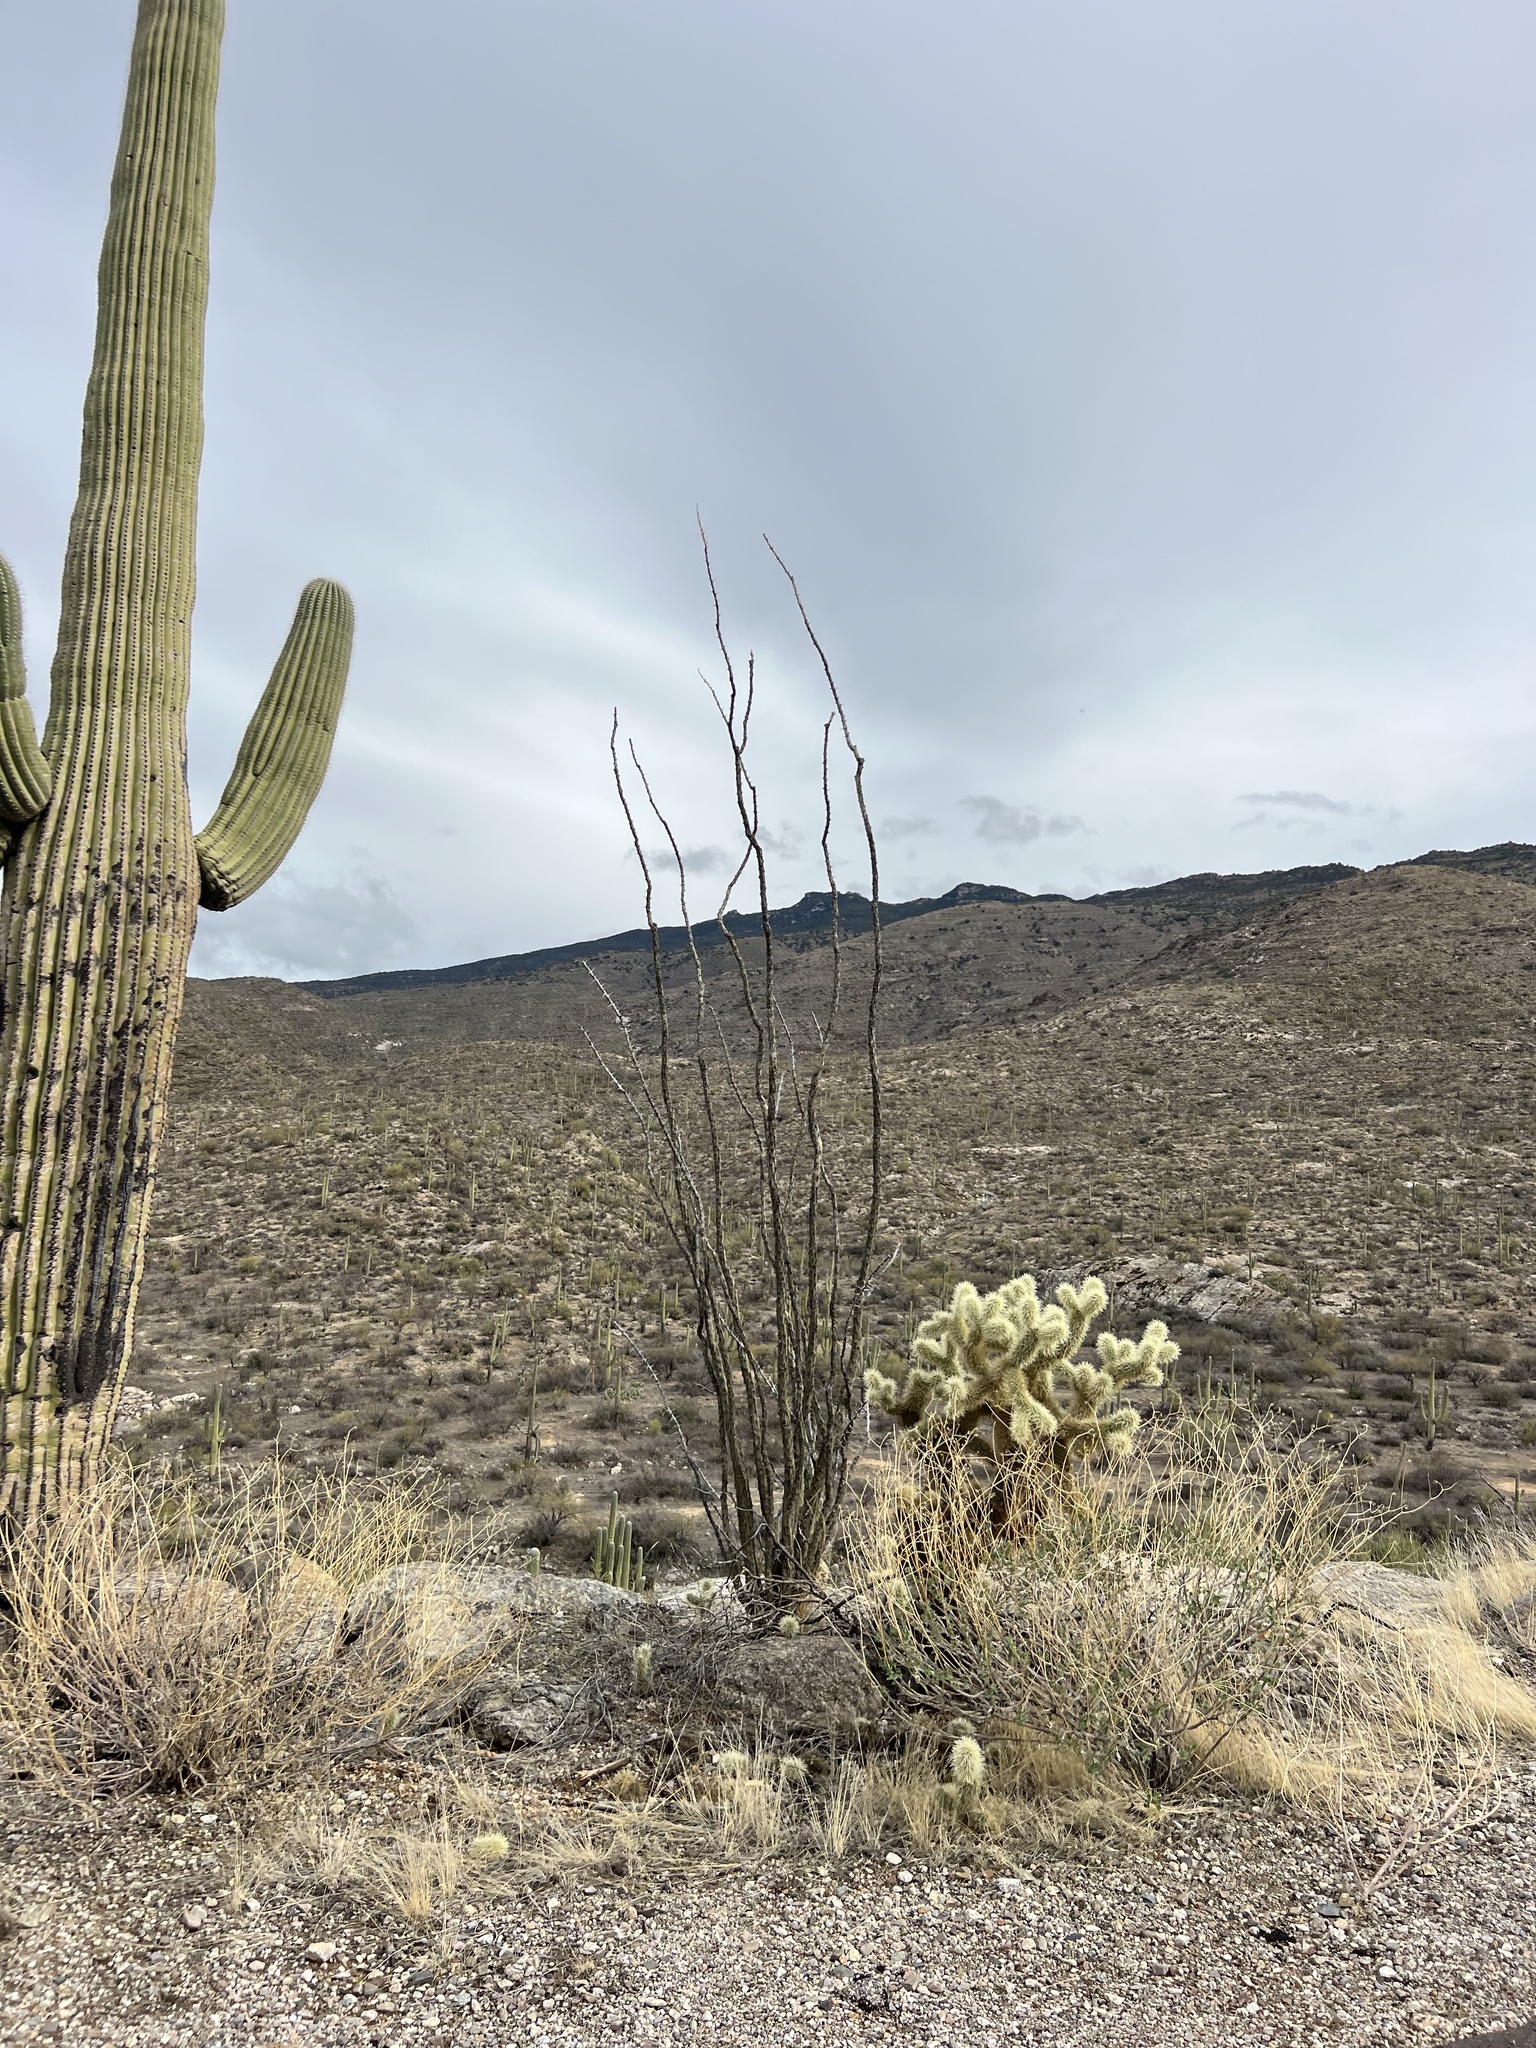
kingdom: Plantae
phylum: Tracheophyta
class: Magnoliopsida
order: Ericales
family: Fouquieriaceae
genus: Fouquieria
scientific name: Fouquieria splendens
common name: Vine-cactus
